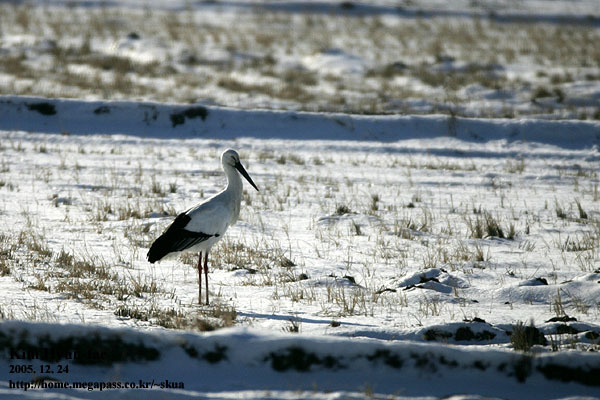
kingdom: Animalia
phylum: Chordata
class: Aves
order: Ciconiiformes
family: Ciconiidae
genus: Ciconia
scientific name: Ciconia boyciana
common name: Oriental stork
